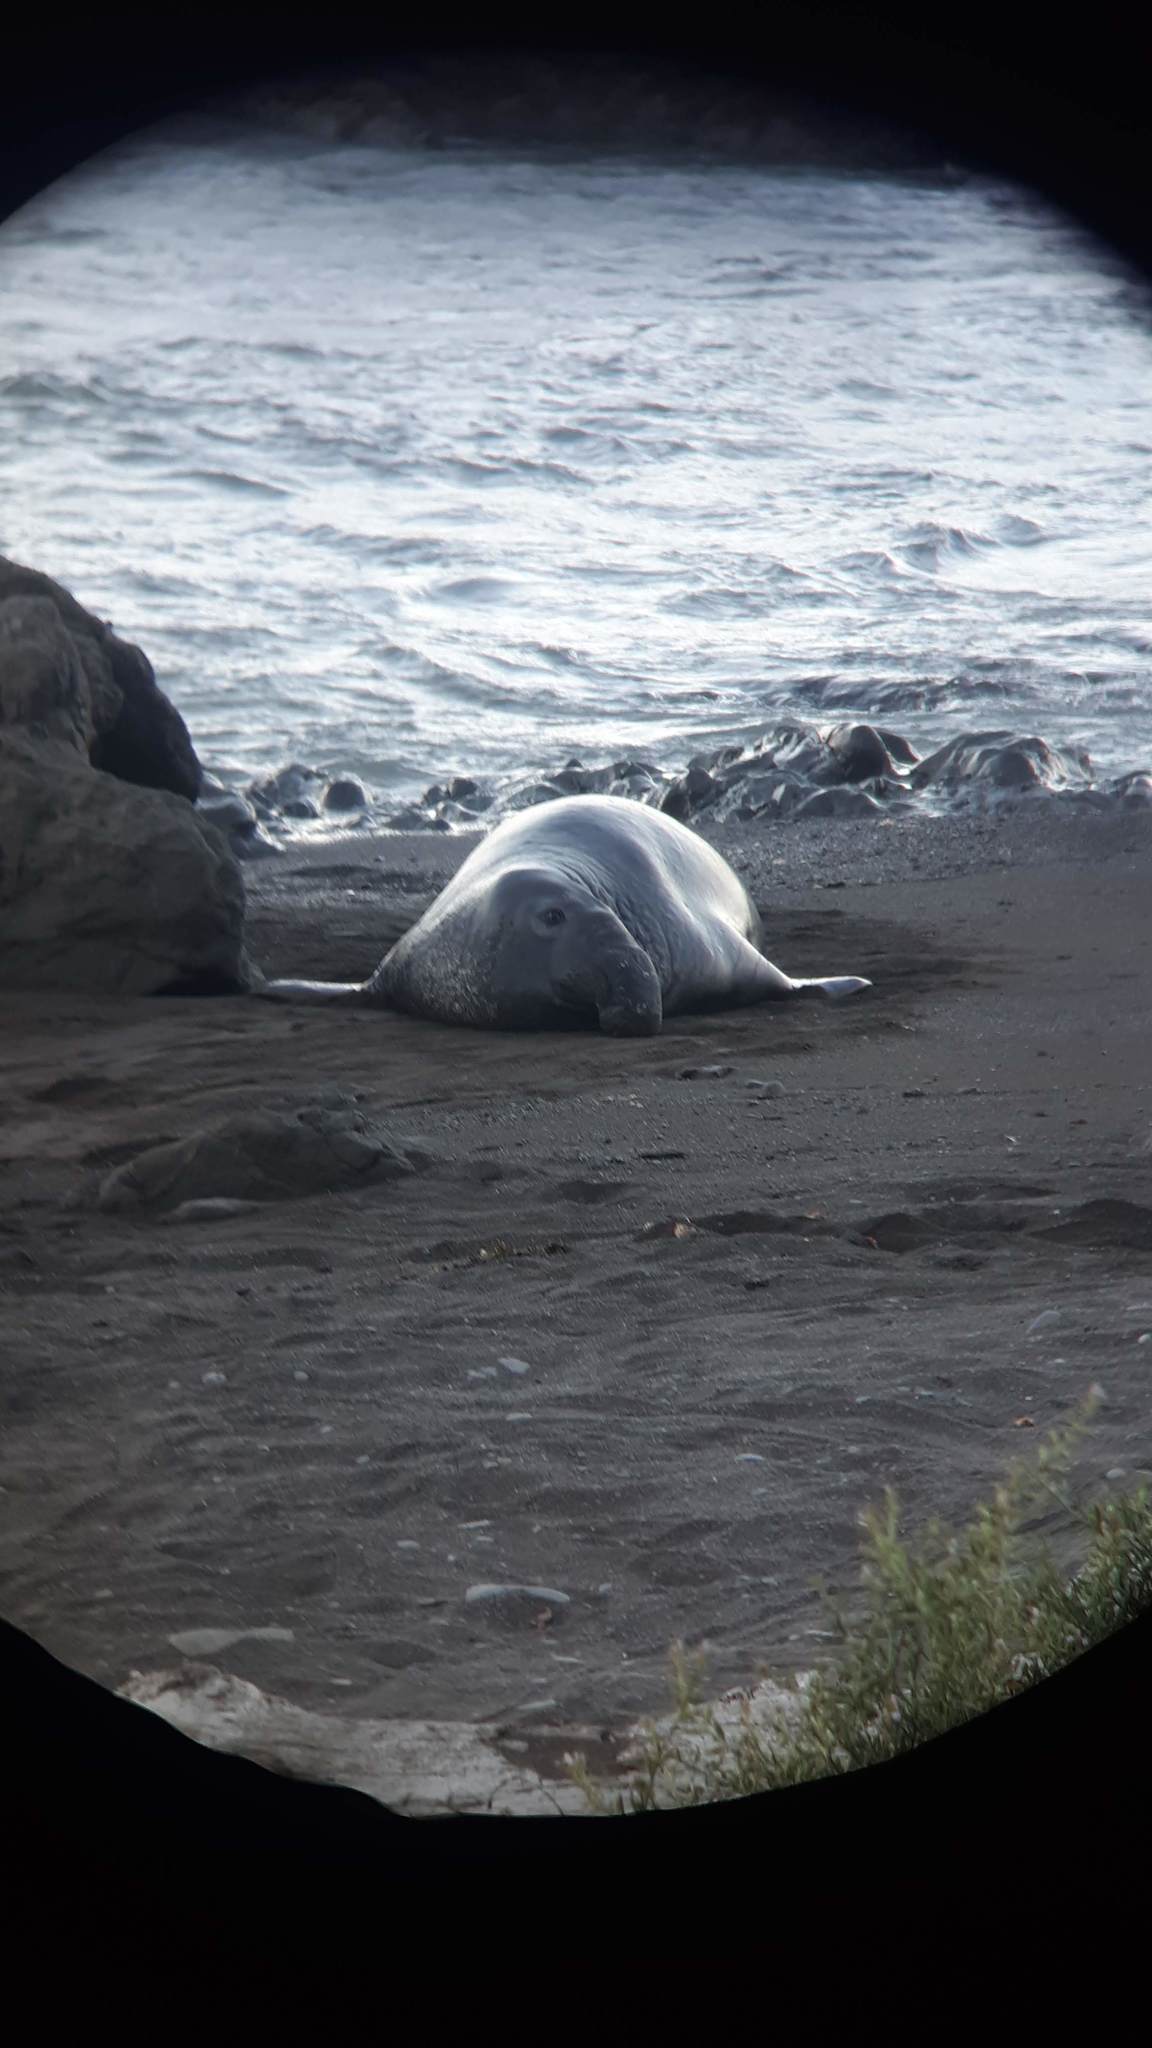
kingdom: Animalia
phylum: Chordata
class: Mammalia
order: Carnivora
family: Phocidae
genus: Mirounga
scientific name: Mirounga angustirostris
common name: Northern elephant seal
